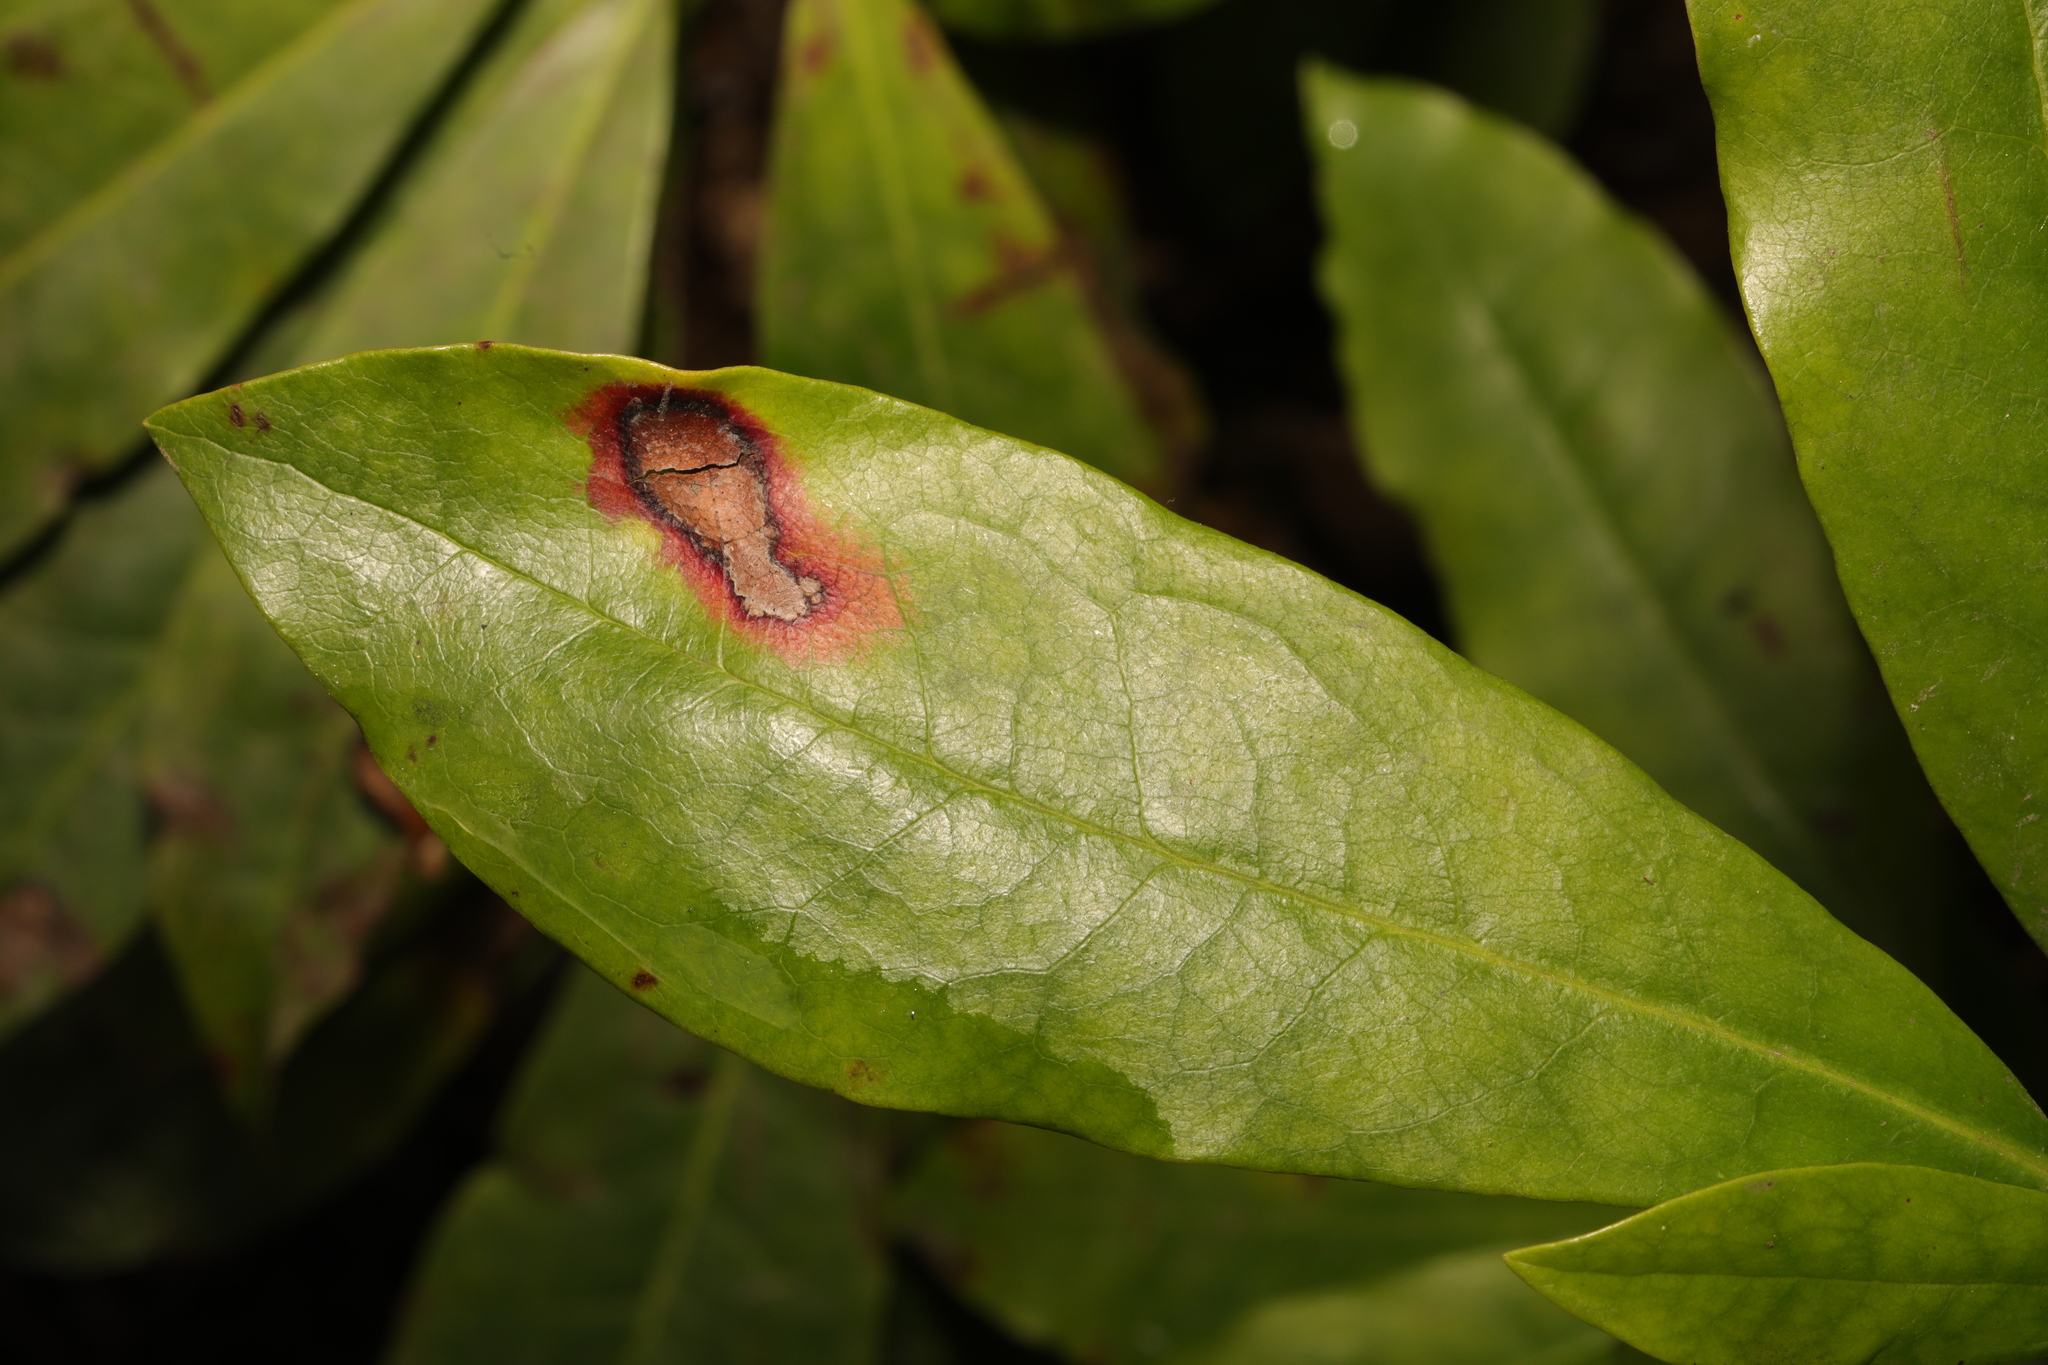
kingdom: Fungi
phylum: Ascomycota
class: Sordariomycetes
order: Glomerellales
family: Glomerellaceae
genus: Colletotrichum
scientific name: Colletotrichum gloeosporioides
